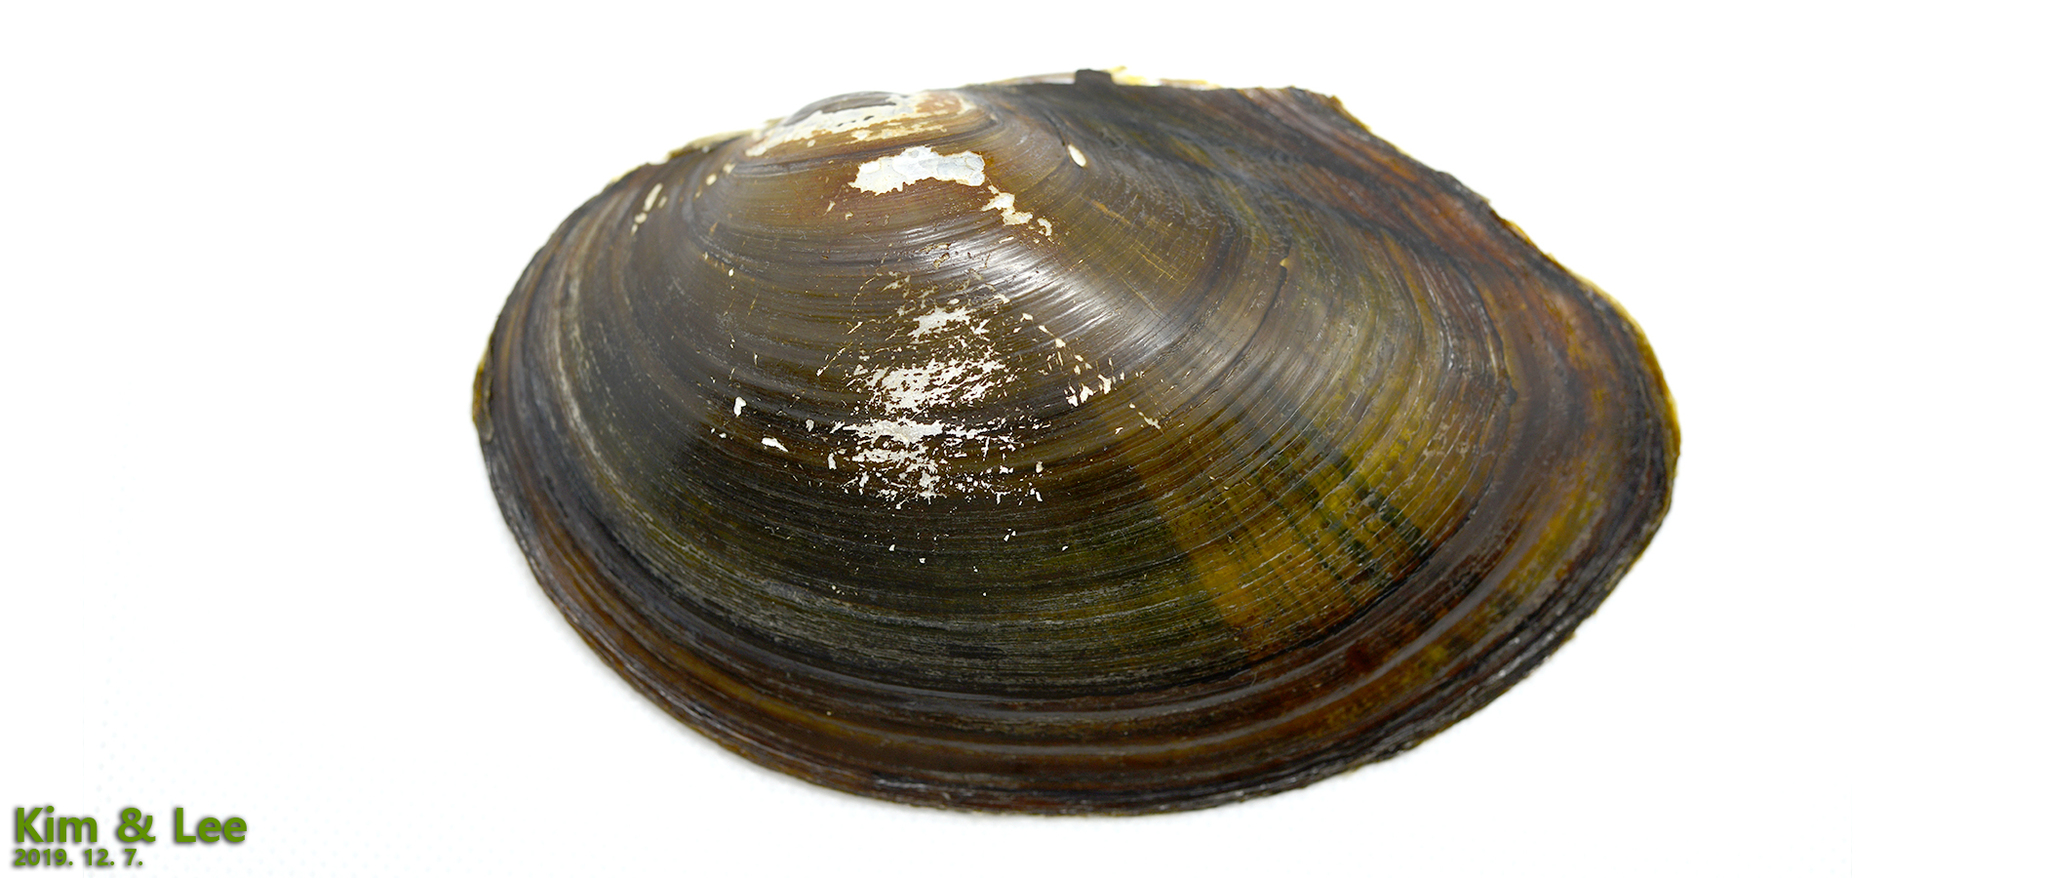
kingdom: Animalia
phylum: Mollusca
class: Bivalvia
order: Unionida
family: Unionidae
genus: Sinanodonta
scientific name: Sinanodonta lauta
